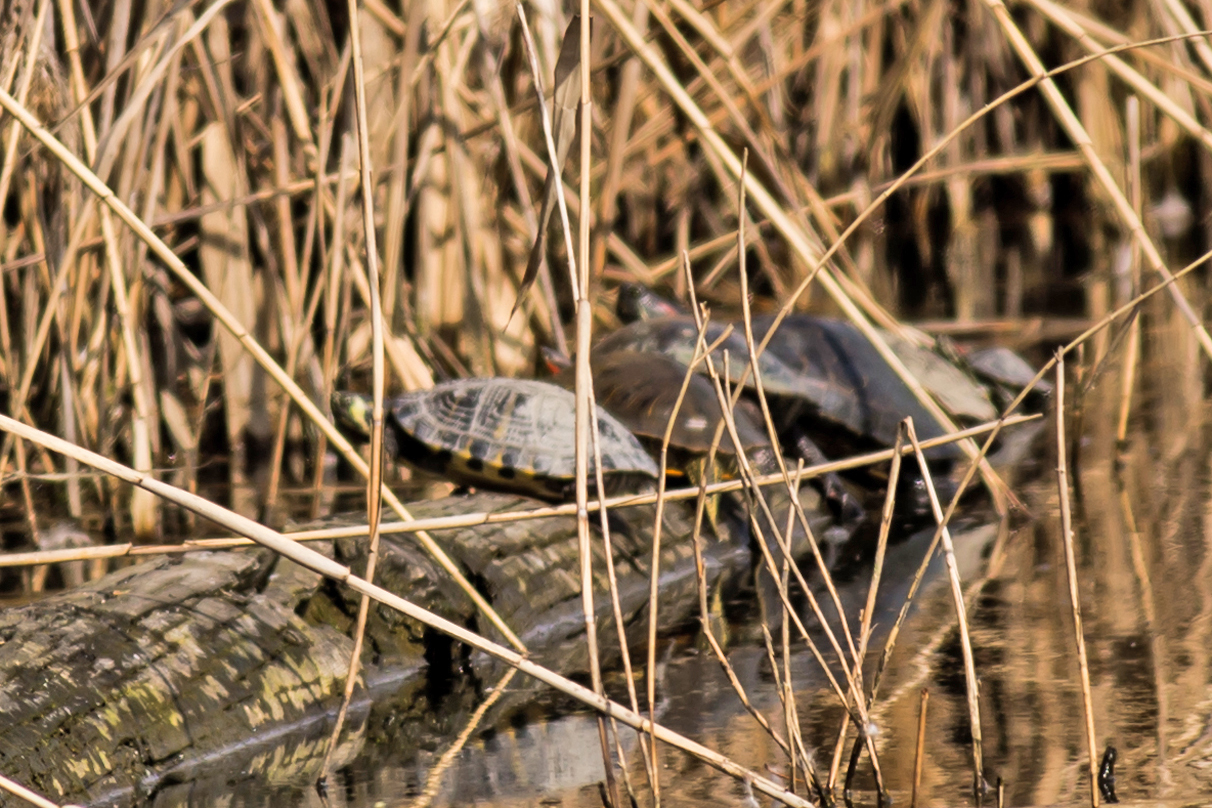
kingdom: Animalia
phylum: Chordata
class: Testudines
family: Emydidae
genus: Trachemys
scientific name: Trachemys scripta
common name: Slider
